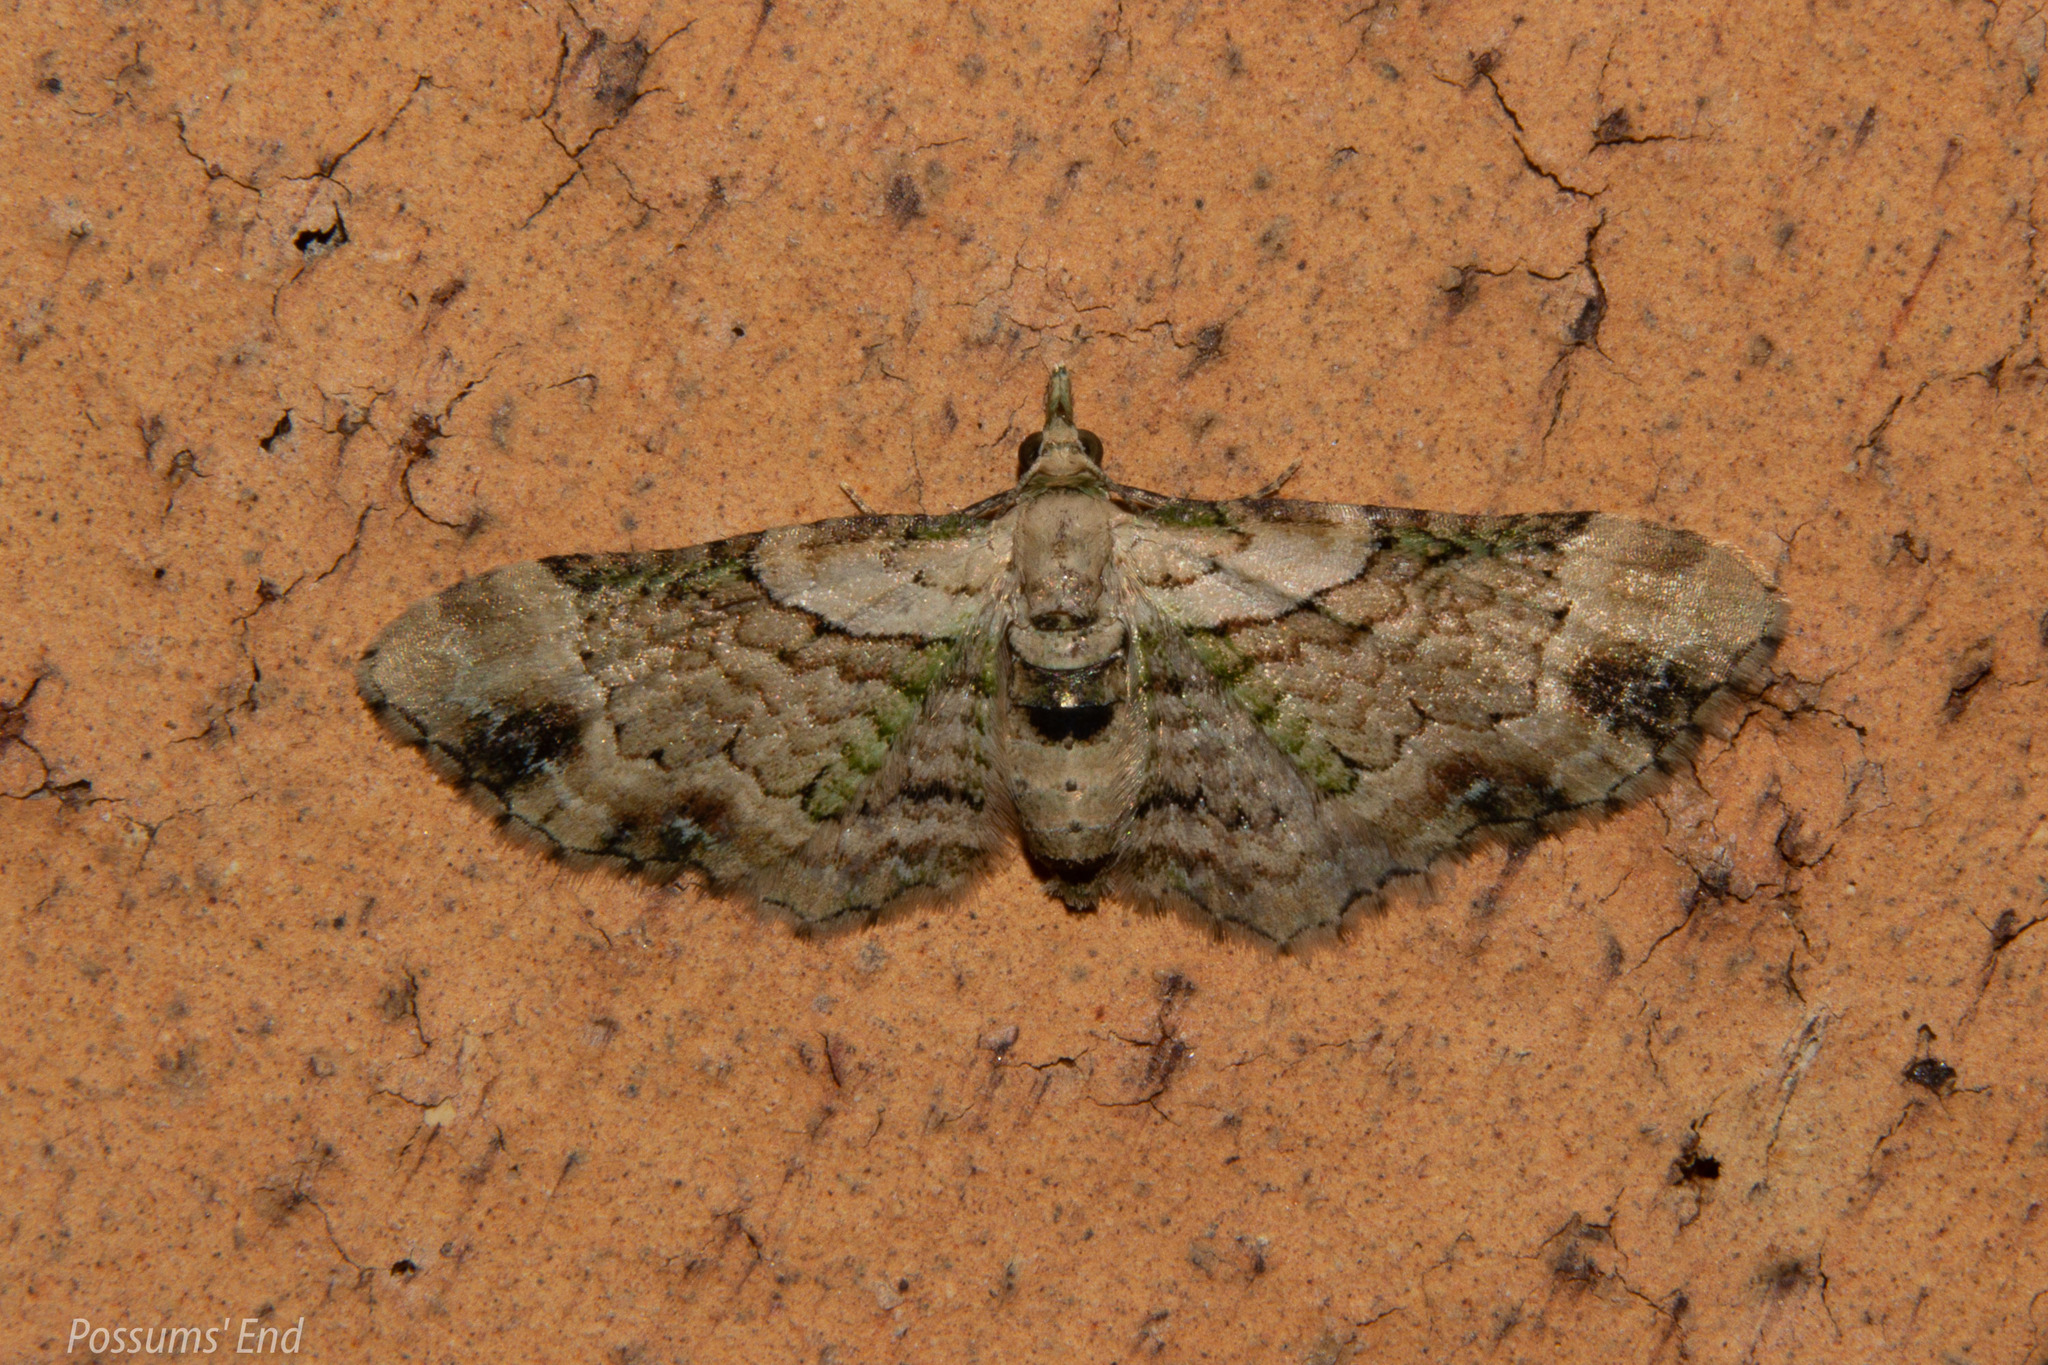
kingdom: Animalia
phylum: Arthropoda
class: Insecta
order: Lepidoptera
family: Geometridae
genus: Chloroclystis
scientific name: Chloroclystis
